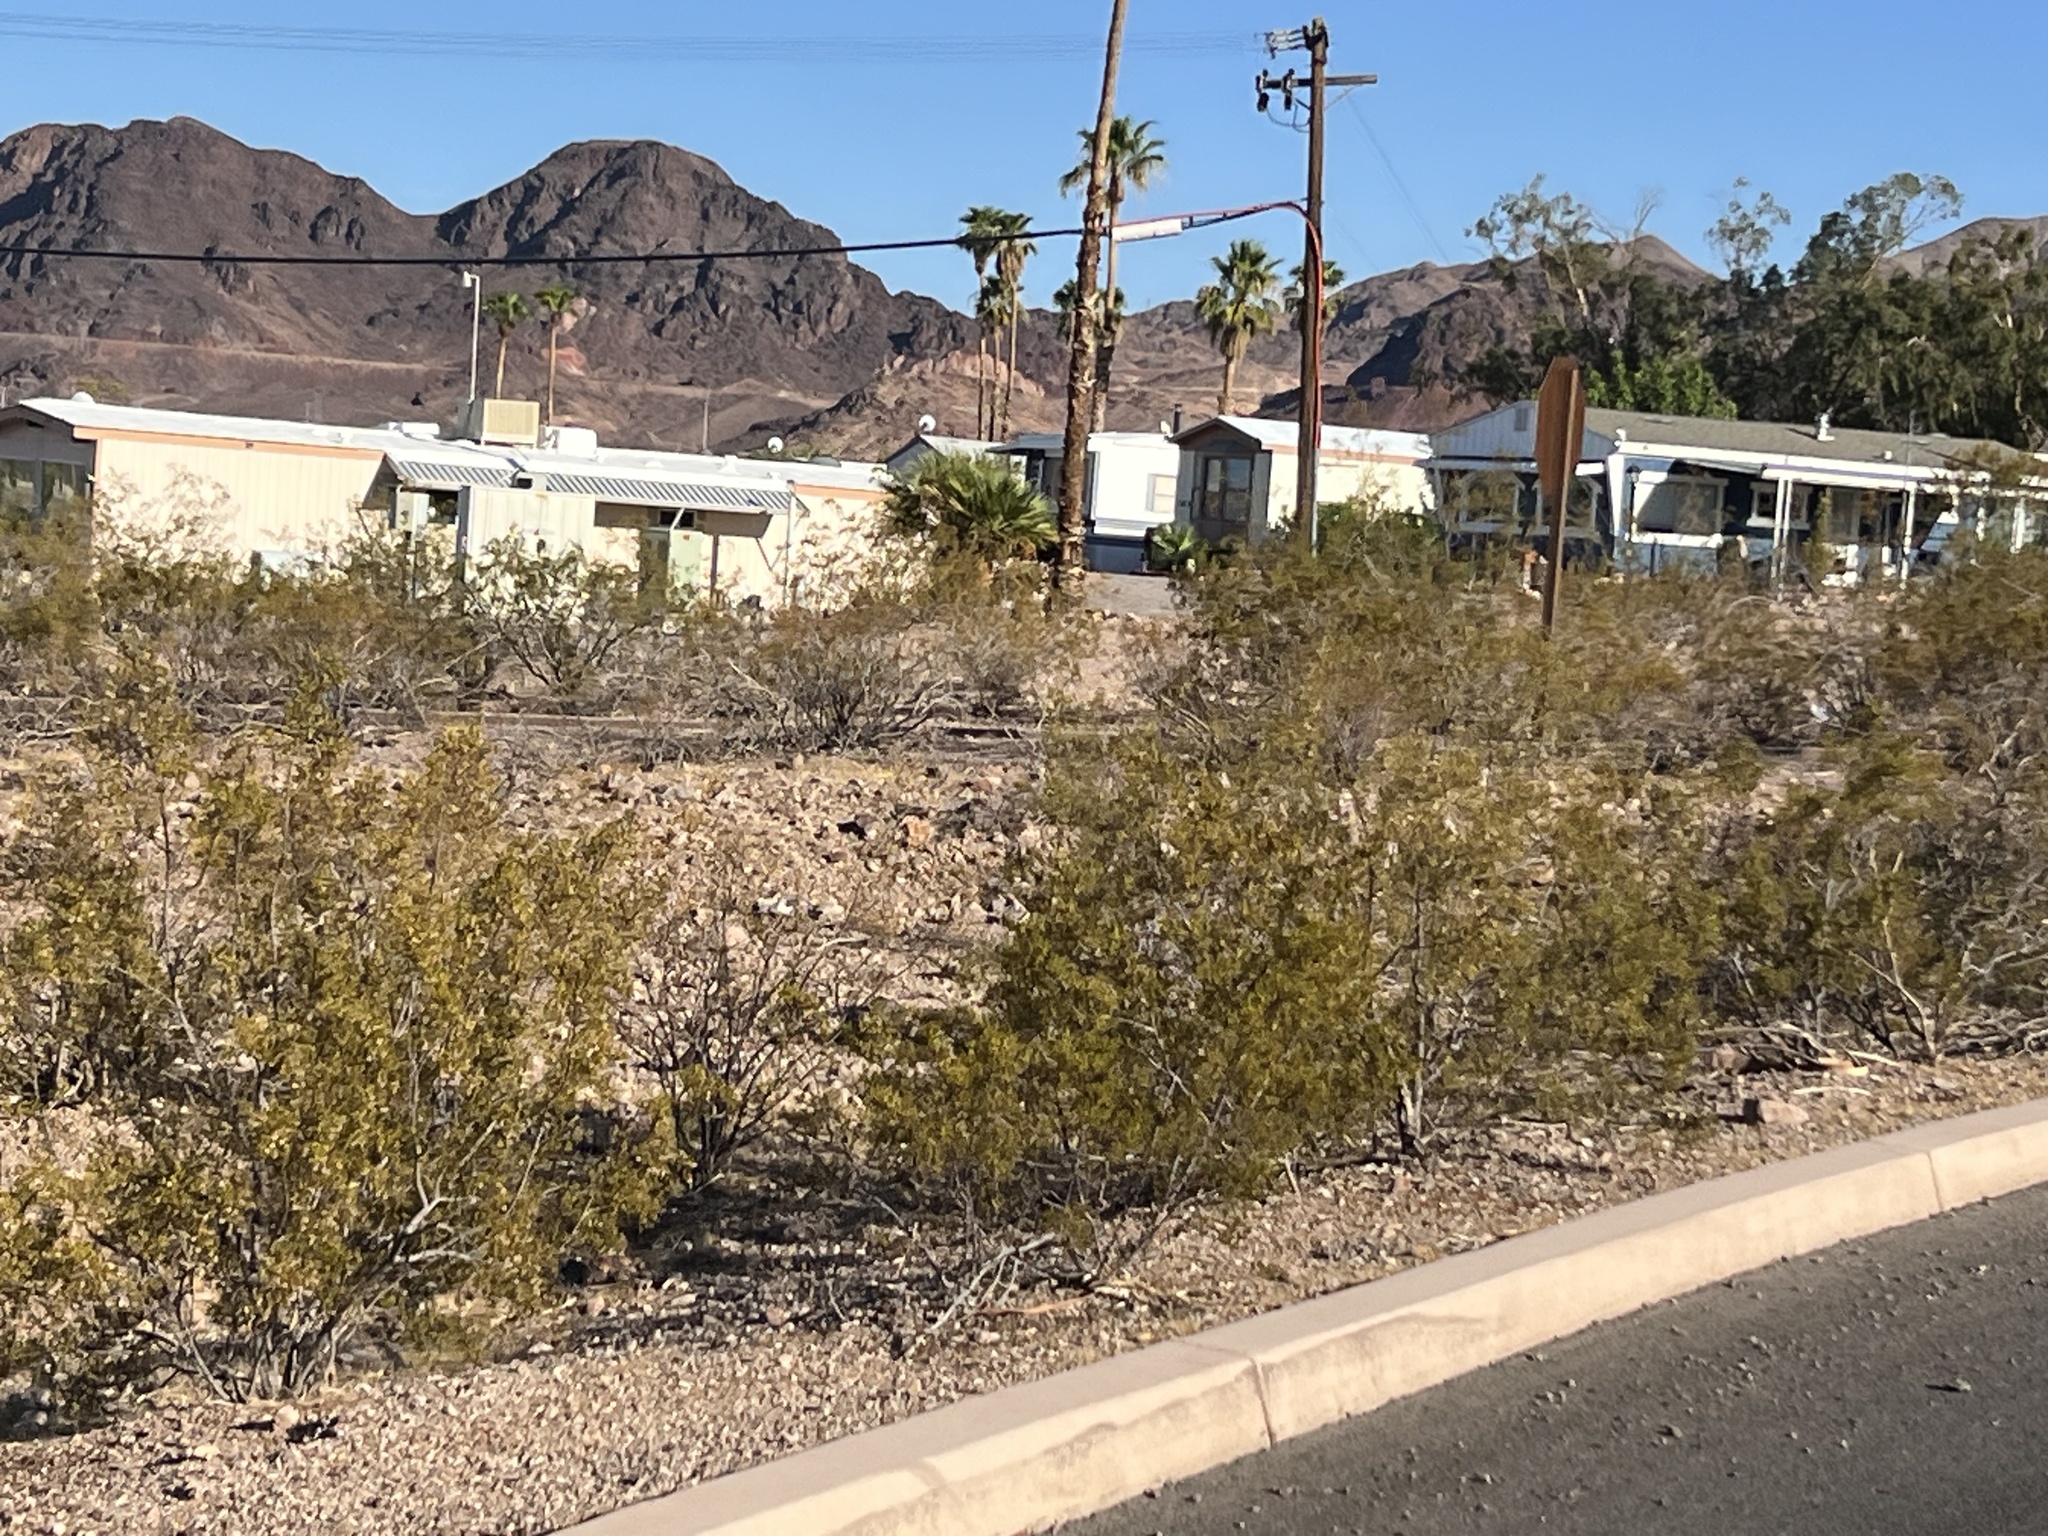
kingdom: Plantae
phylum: Tracheophyta
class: Magnoliopsida
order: Zygophyllales
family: Zygophyllaceae
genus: Larrea
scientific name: Larrea tridentata
